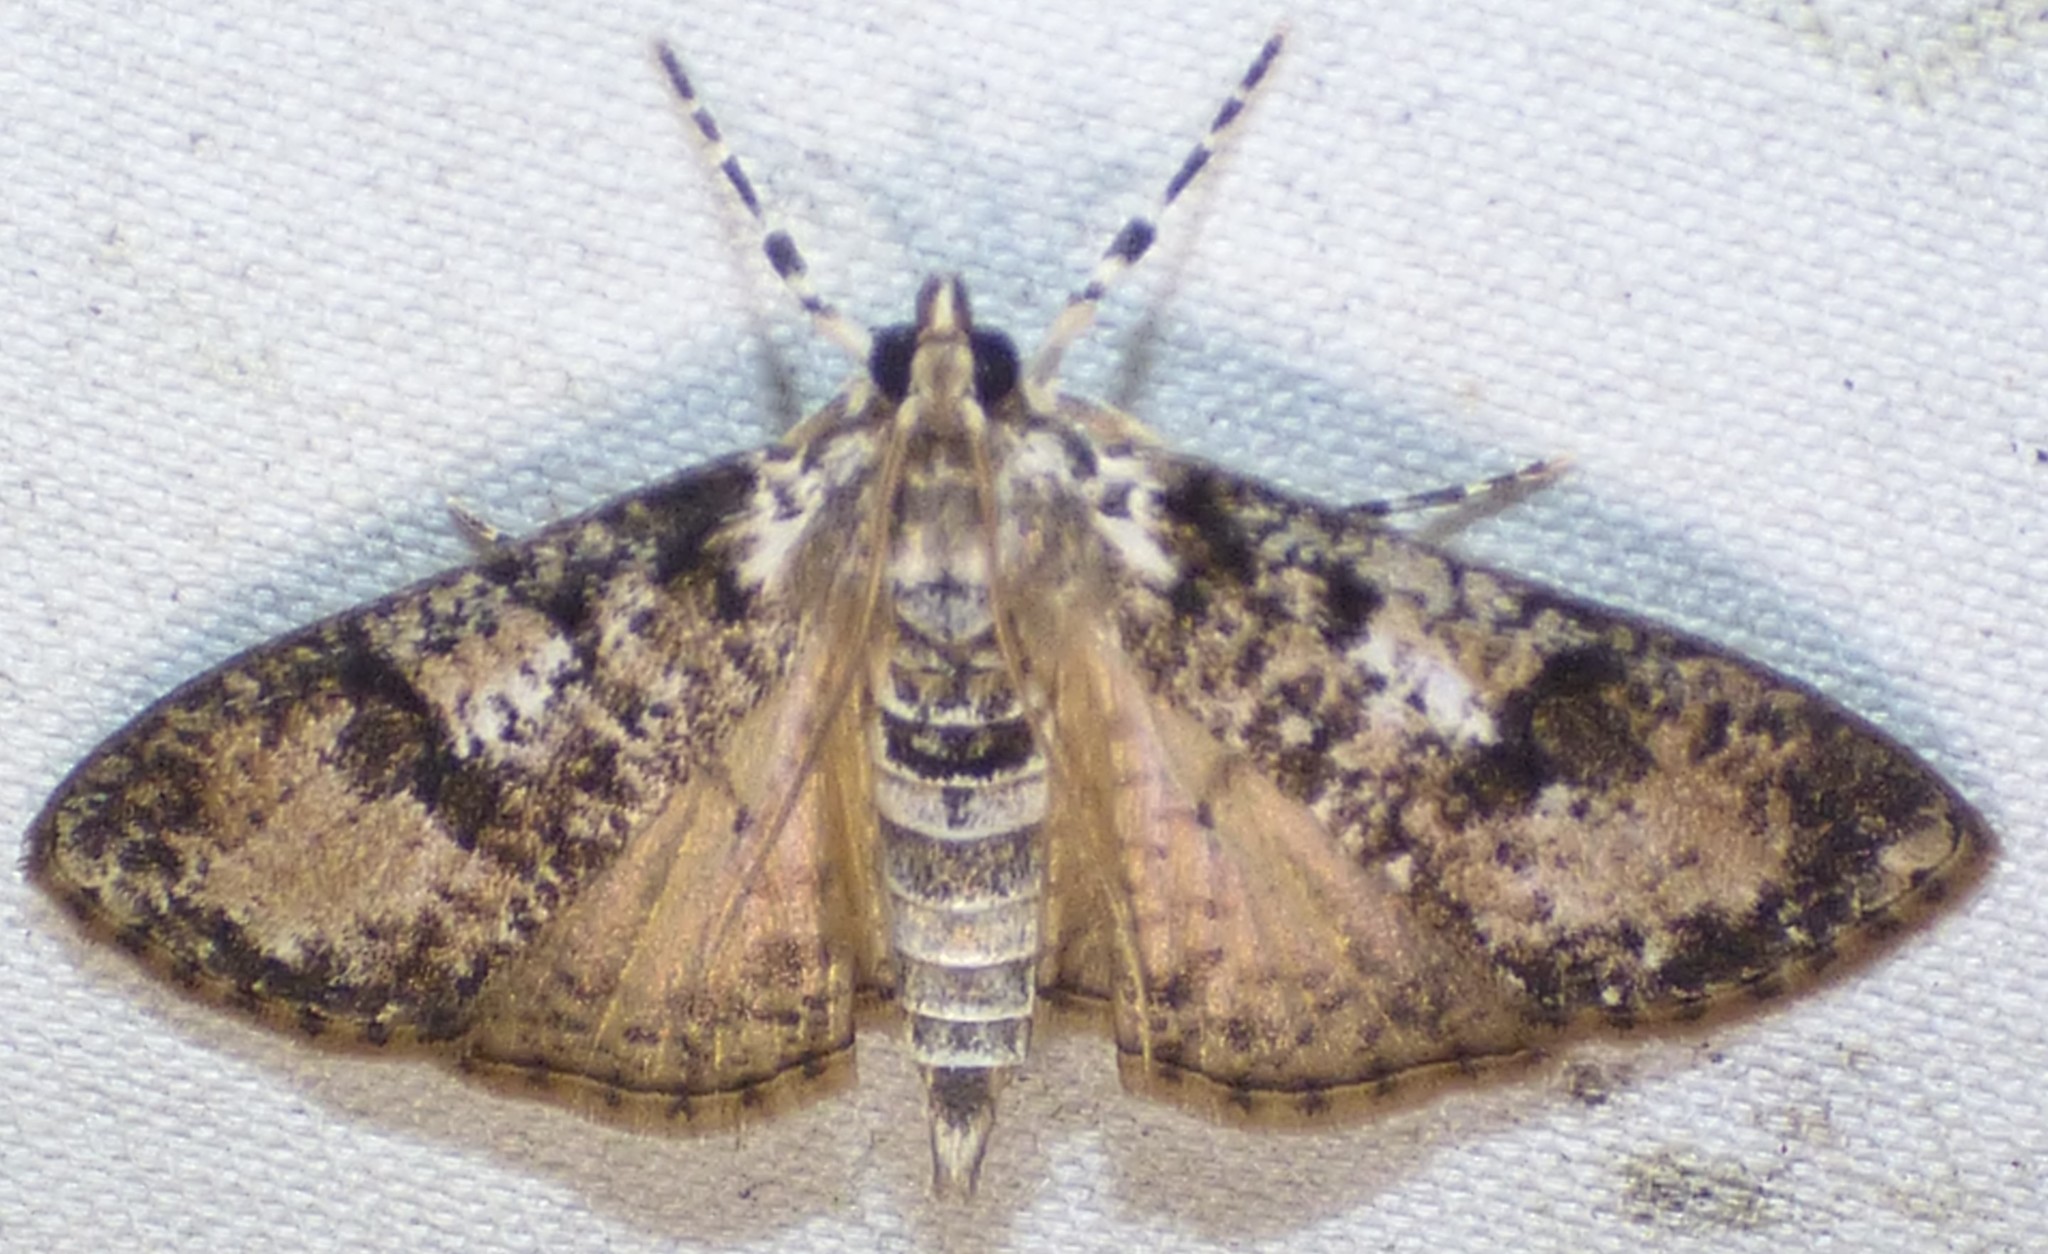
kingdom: Animalia
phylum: Arthropoda
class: Insecta
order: Lepidoptera
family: Crambidae
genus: Palpita
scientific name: Palpita magniferalis
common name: Splendid palpita moth
